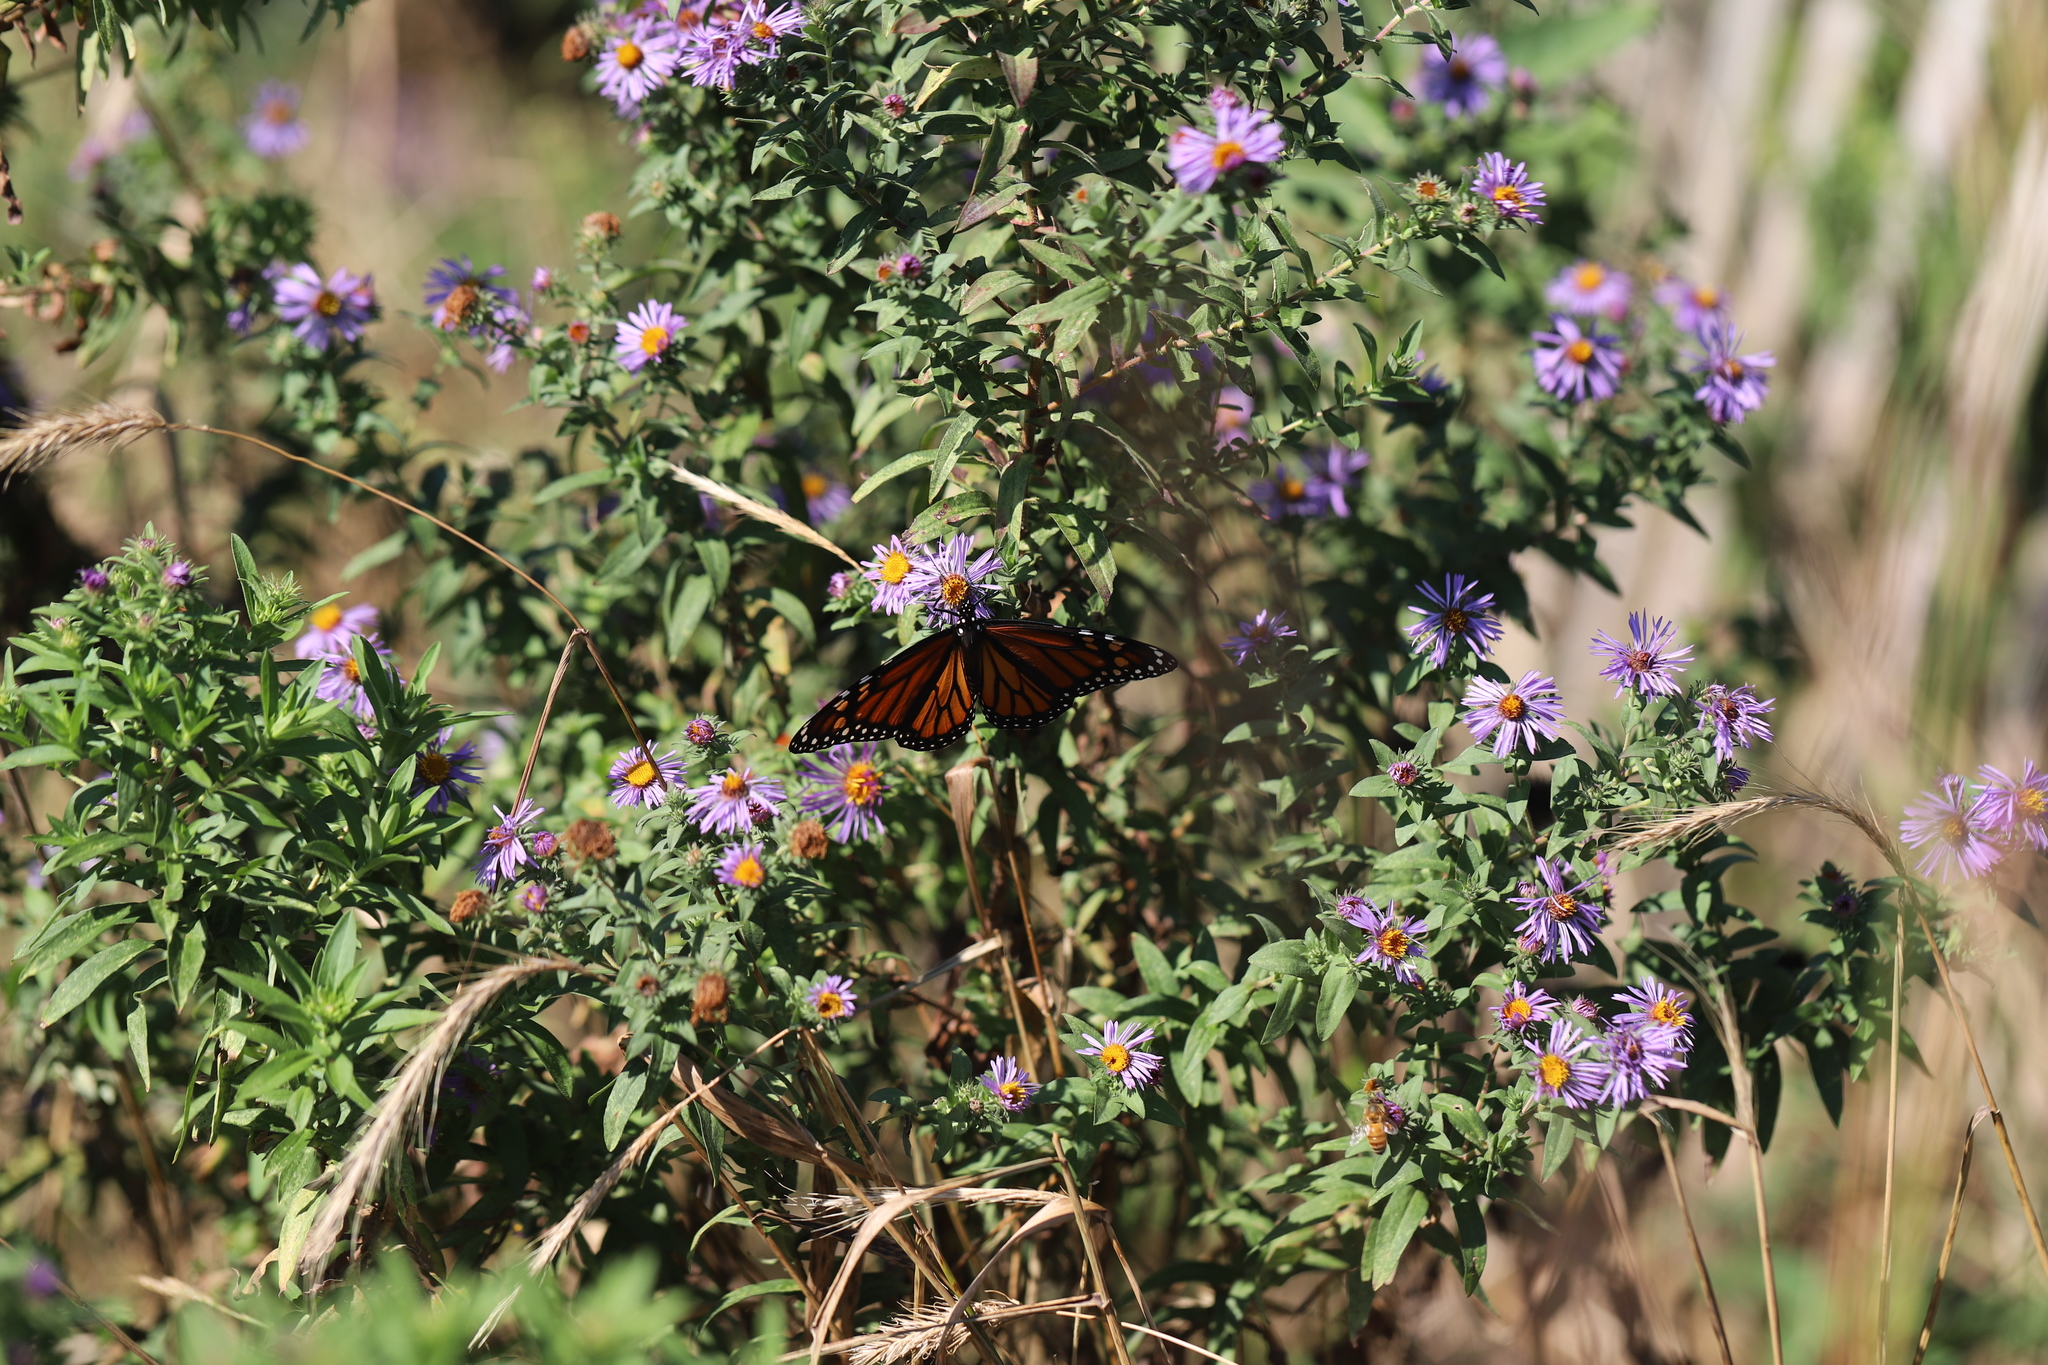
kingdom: Animalia
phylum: Arthropoda
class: Insecta
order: Lepidoptera
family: Nymphalidae
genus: Danaus
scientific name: Danaus plexippus
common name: Monarch
